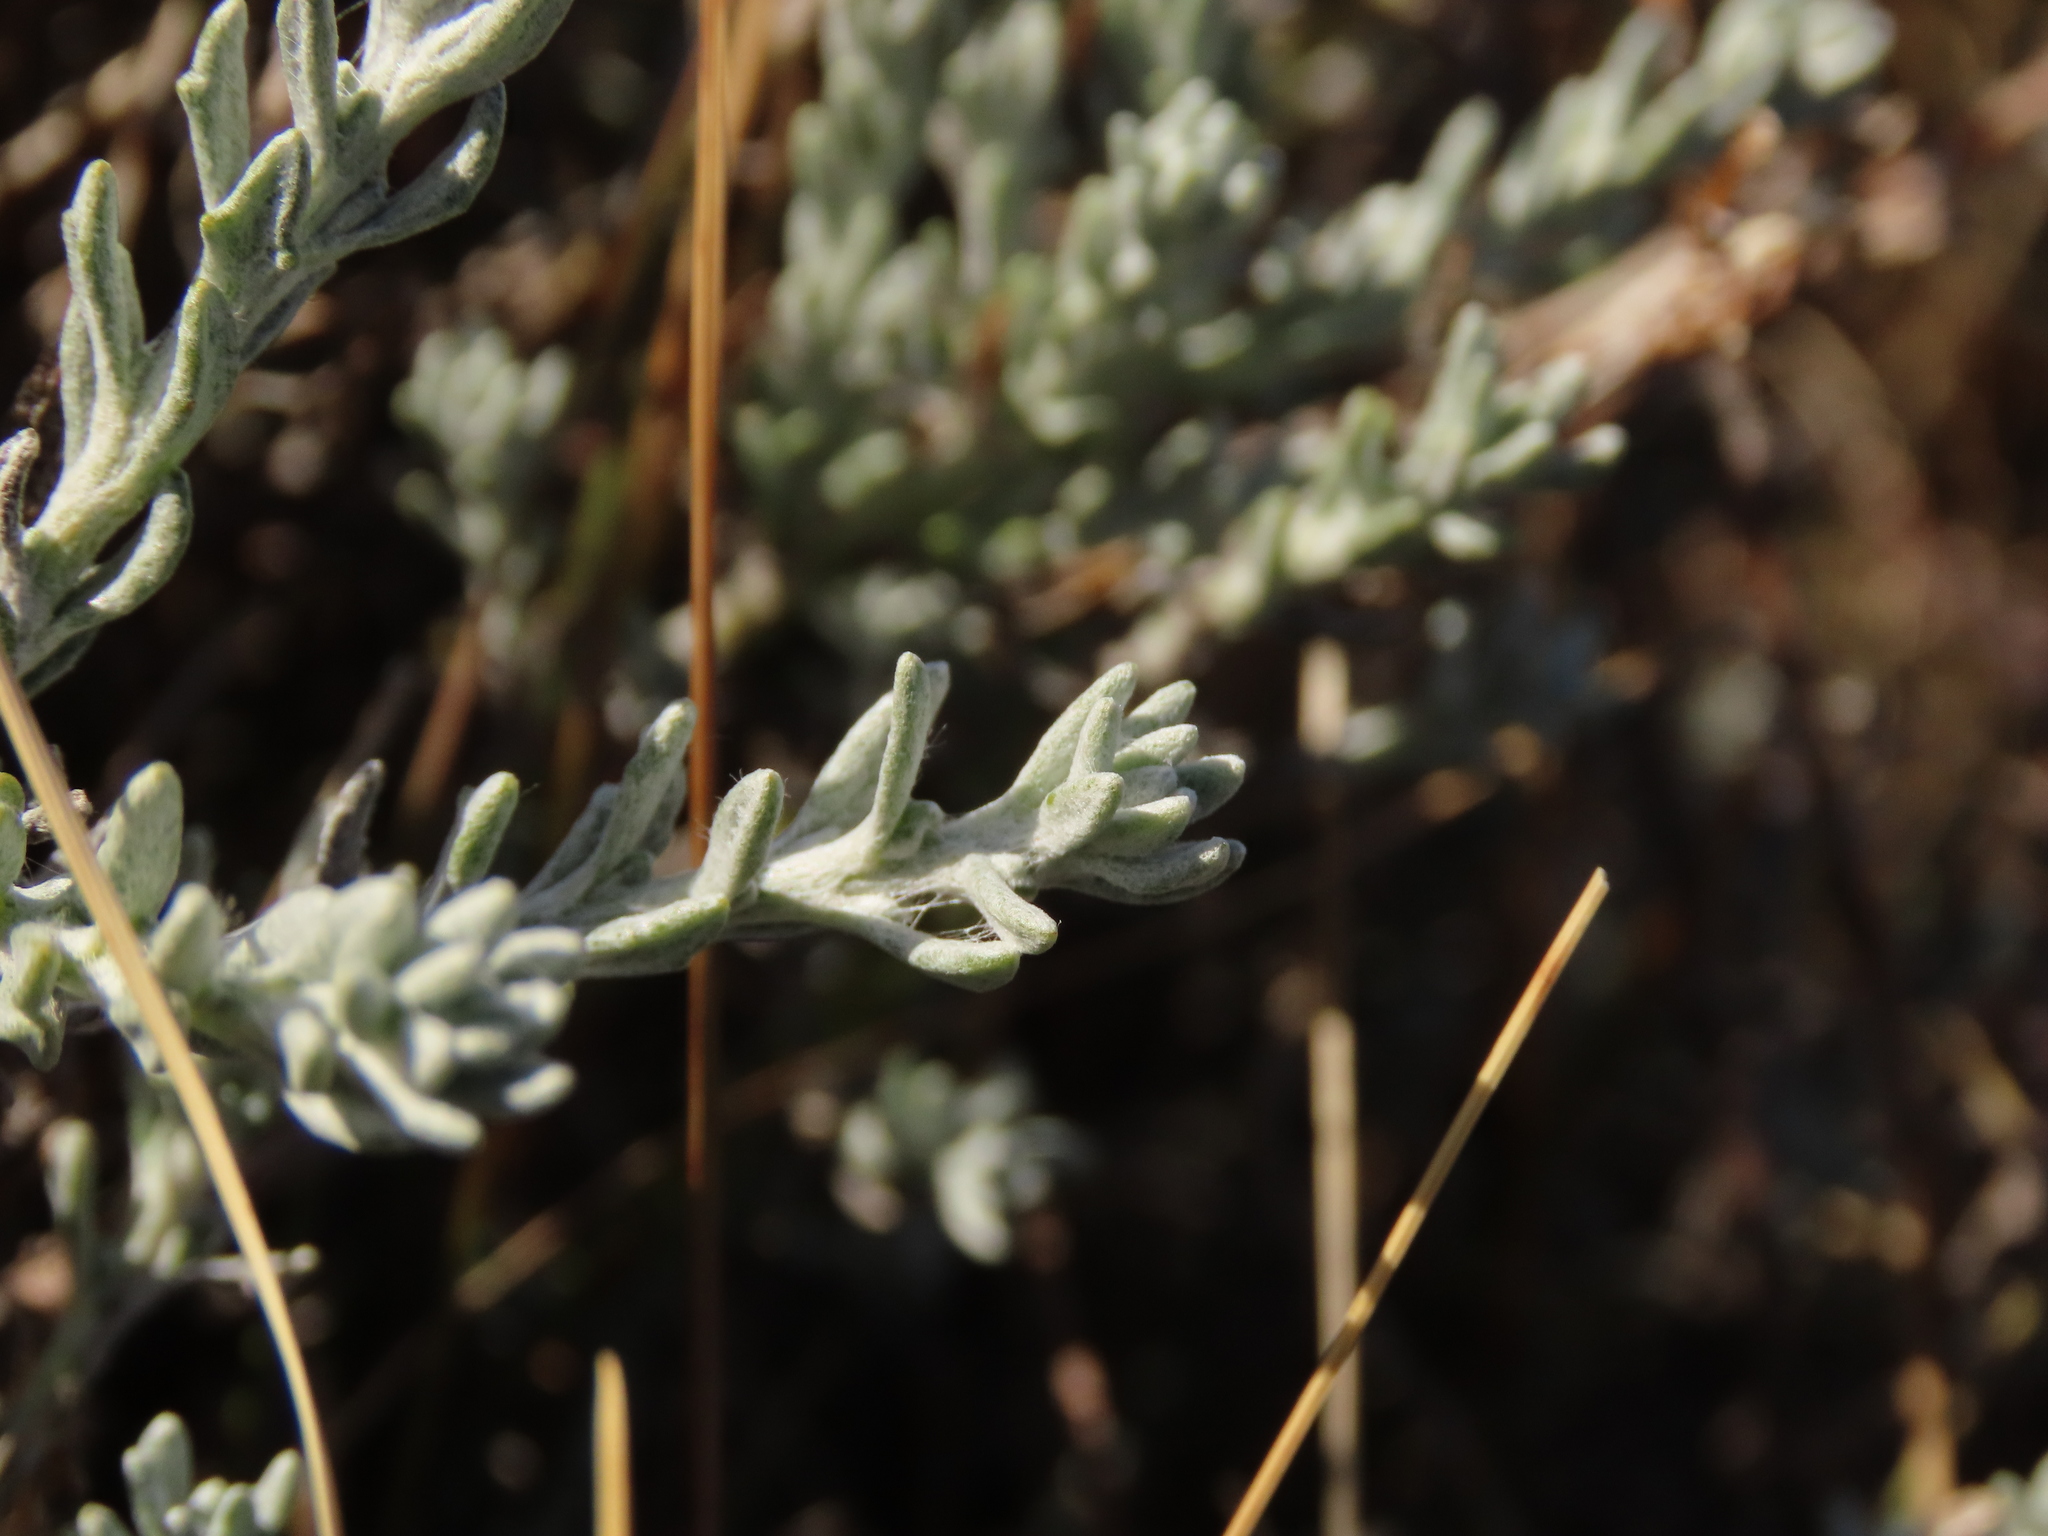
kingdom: Plantae
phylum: Tracheophyta
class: Magnoliopsida
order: Asterales
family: Asteraceae
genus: Senecio
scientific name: Senecio patagonicus
